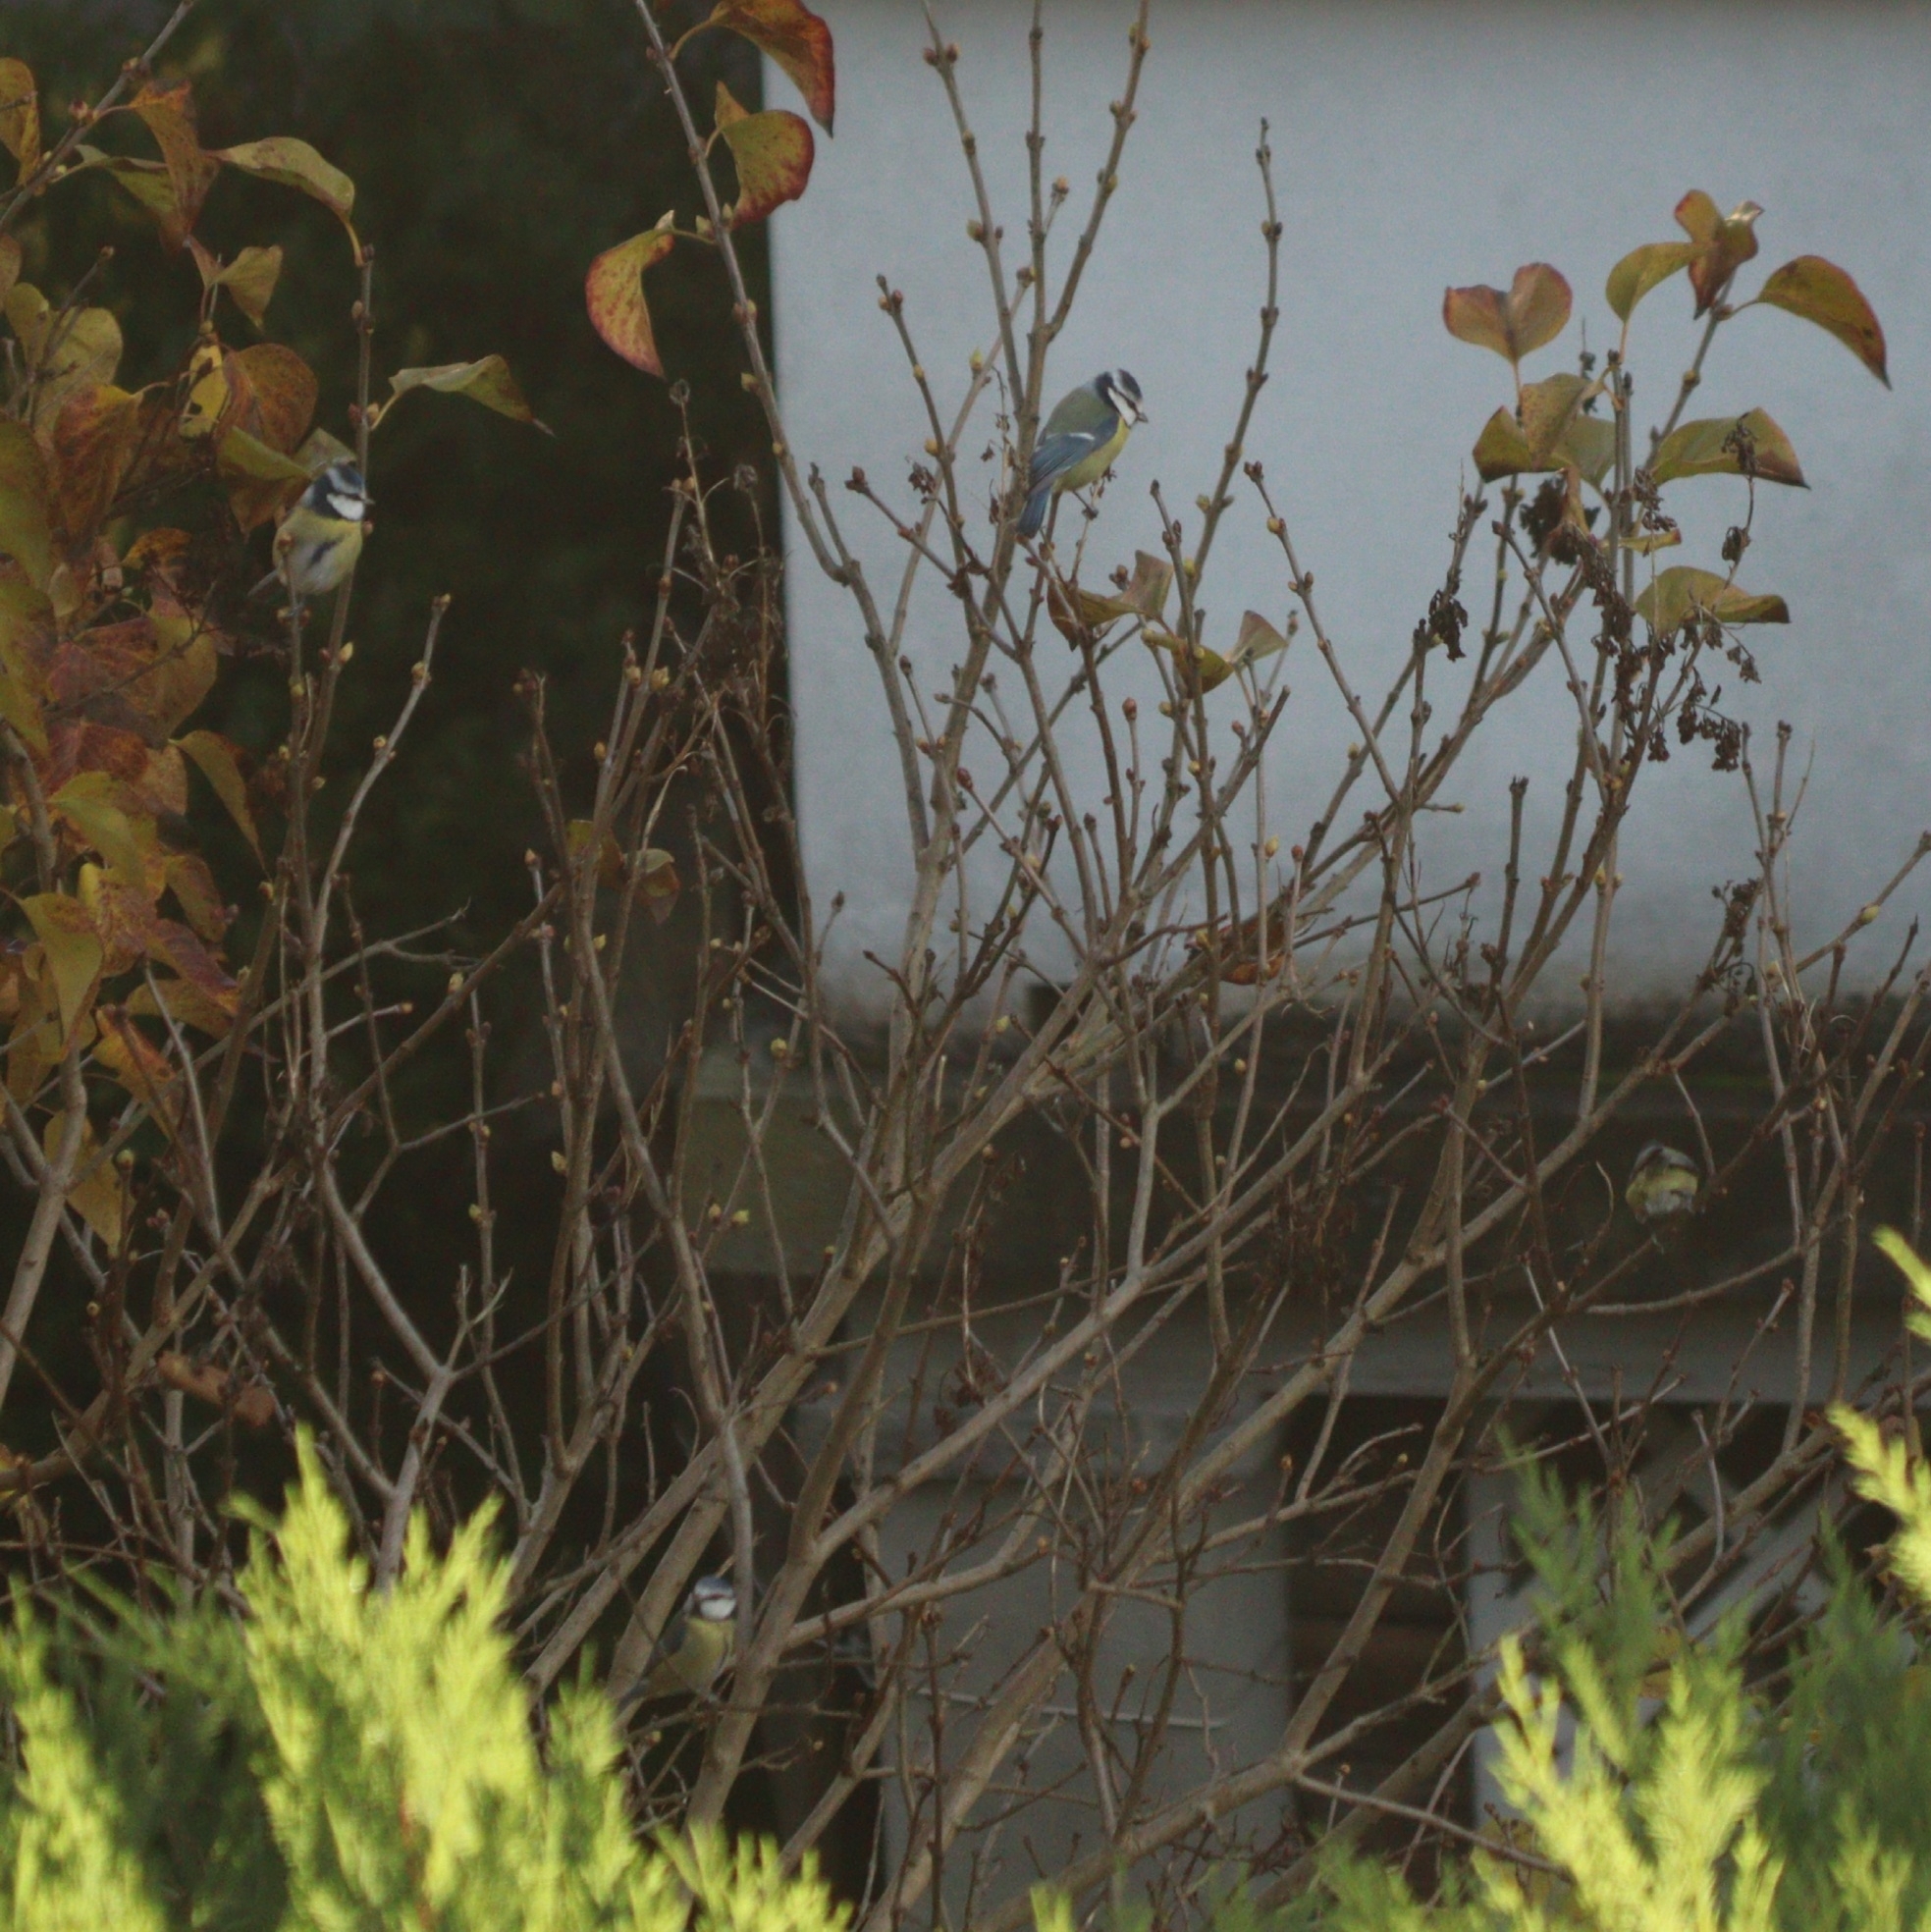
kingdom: Animalia
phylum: Chordata
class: Aves
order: Passeriformes
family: Paridae
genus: Cyanistes
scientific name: Cyanistes caeruleus
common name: Eurasian blue tit
